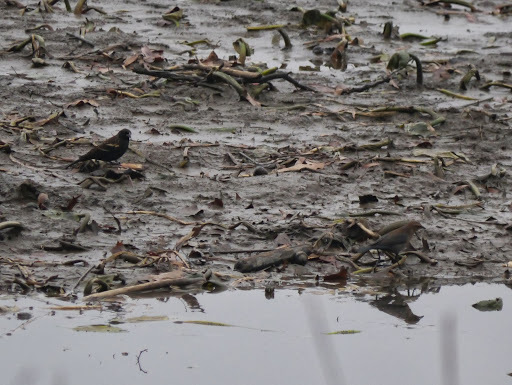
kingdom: Animalia
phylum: Chordata
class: Aves
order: Passeriformes
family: Icteridae
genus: Agelaius
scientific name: Agelaius phoeniceus
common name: Red-winged blackbird
